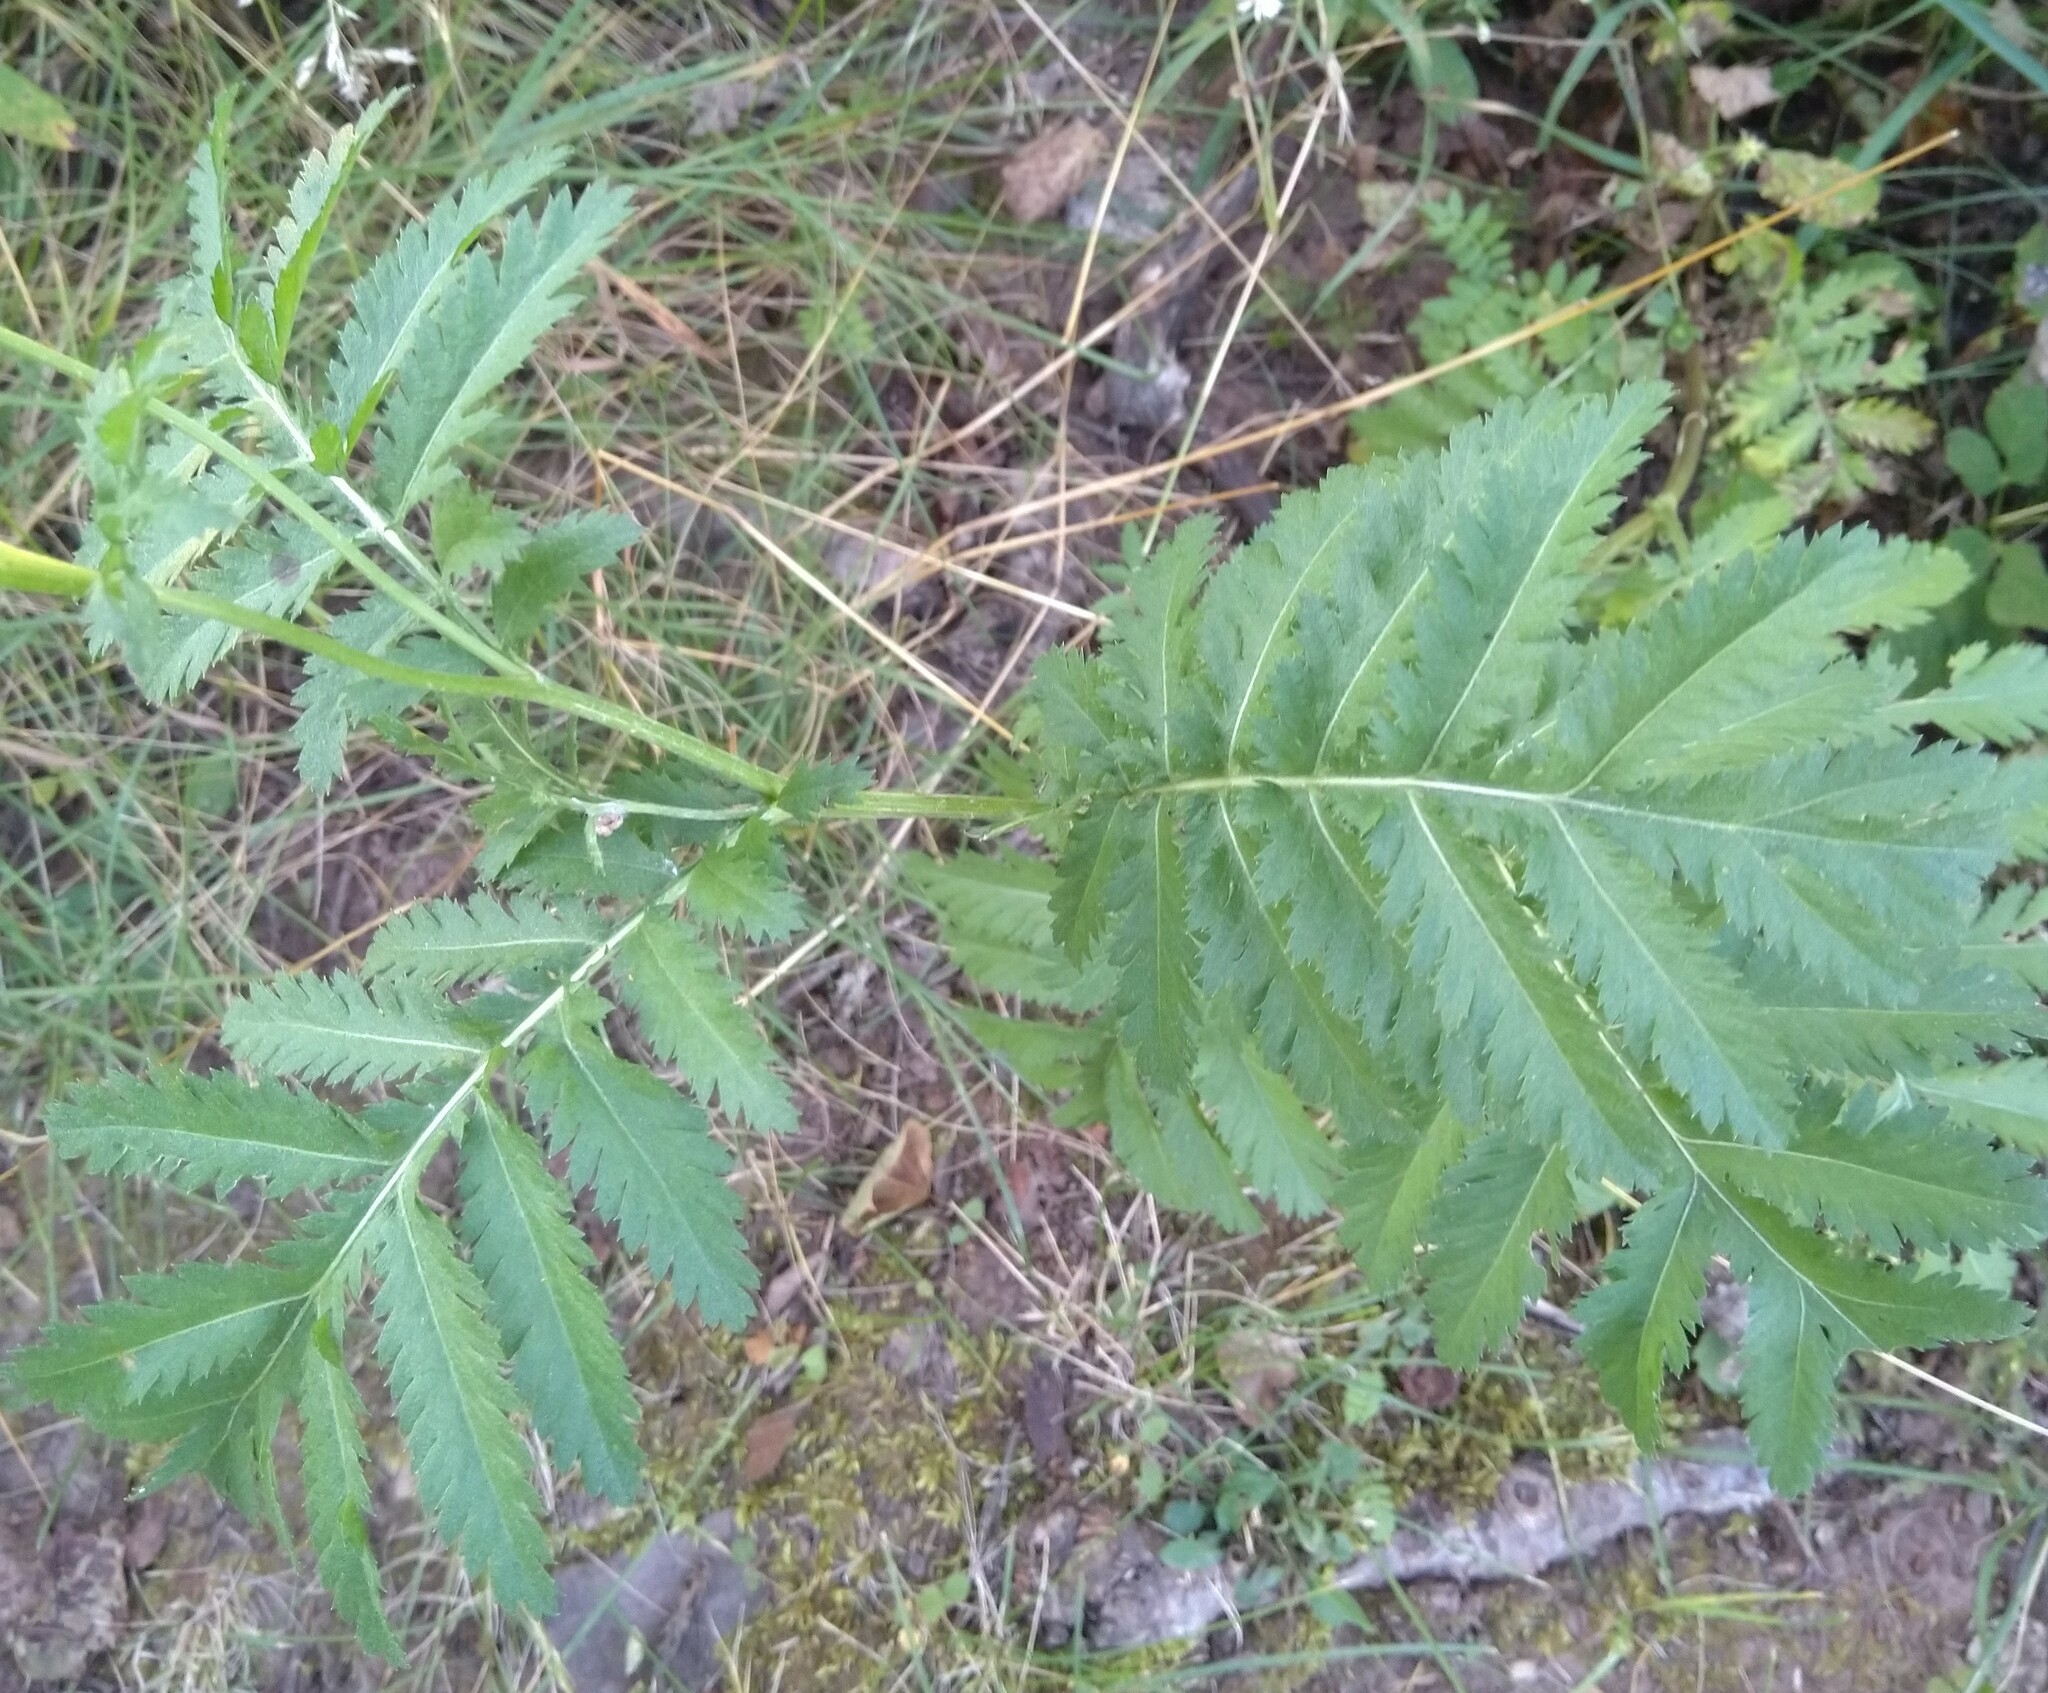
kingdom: Plantae
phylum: Tracheophyta
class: Magnoliopsida
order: Asterales
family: Asteraceae
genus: Tanacetum
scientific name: Tanacetum vulgare
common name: Common tansy
